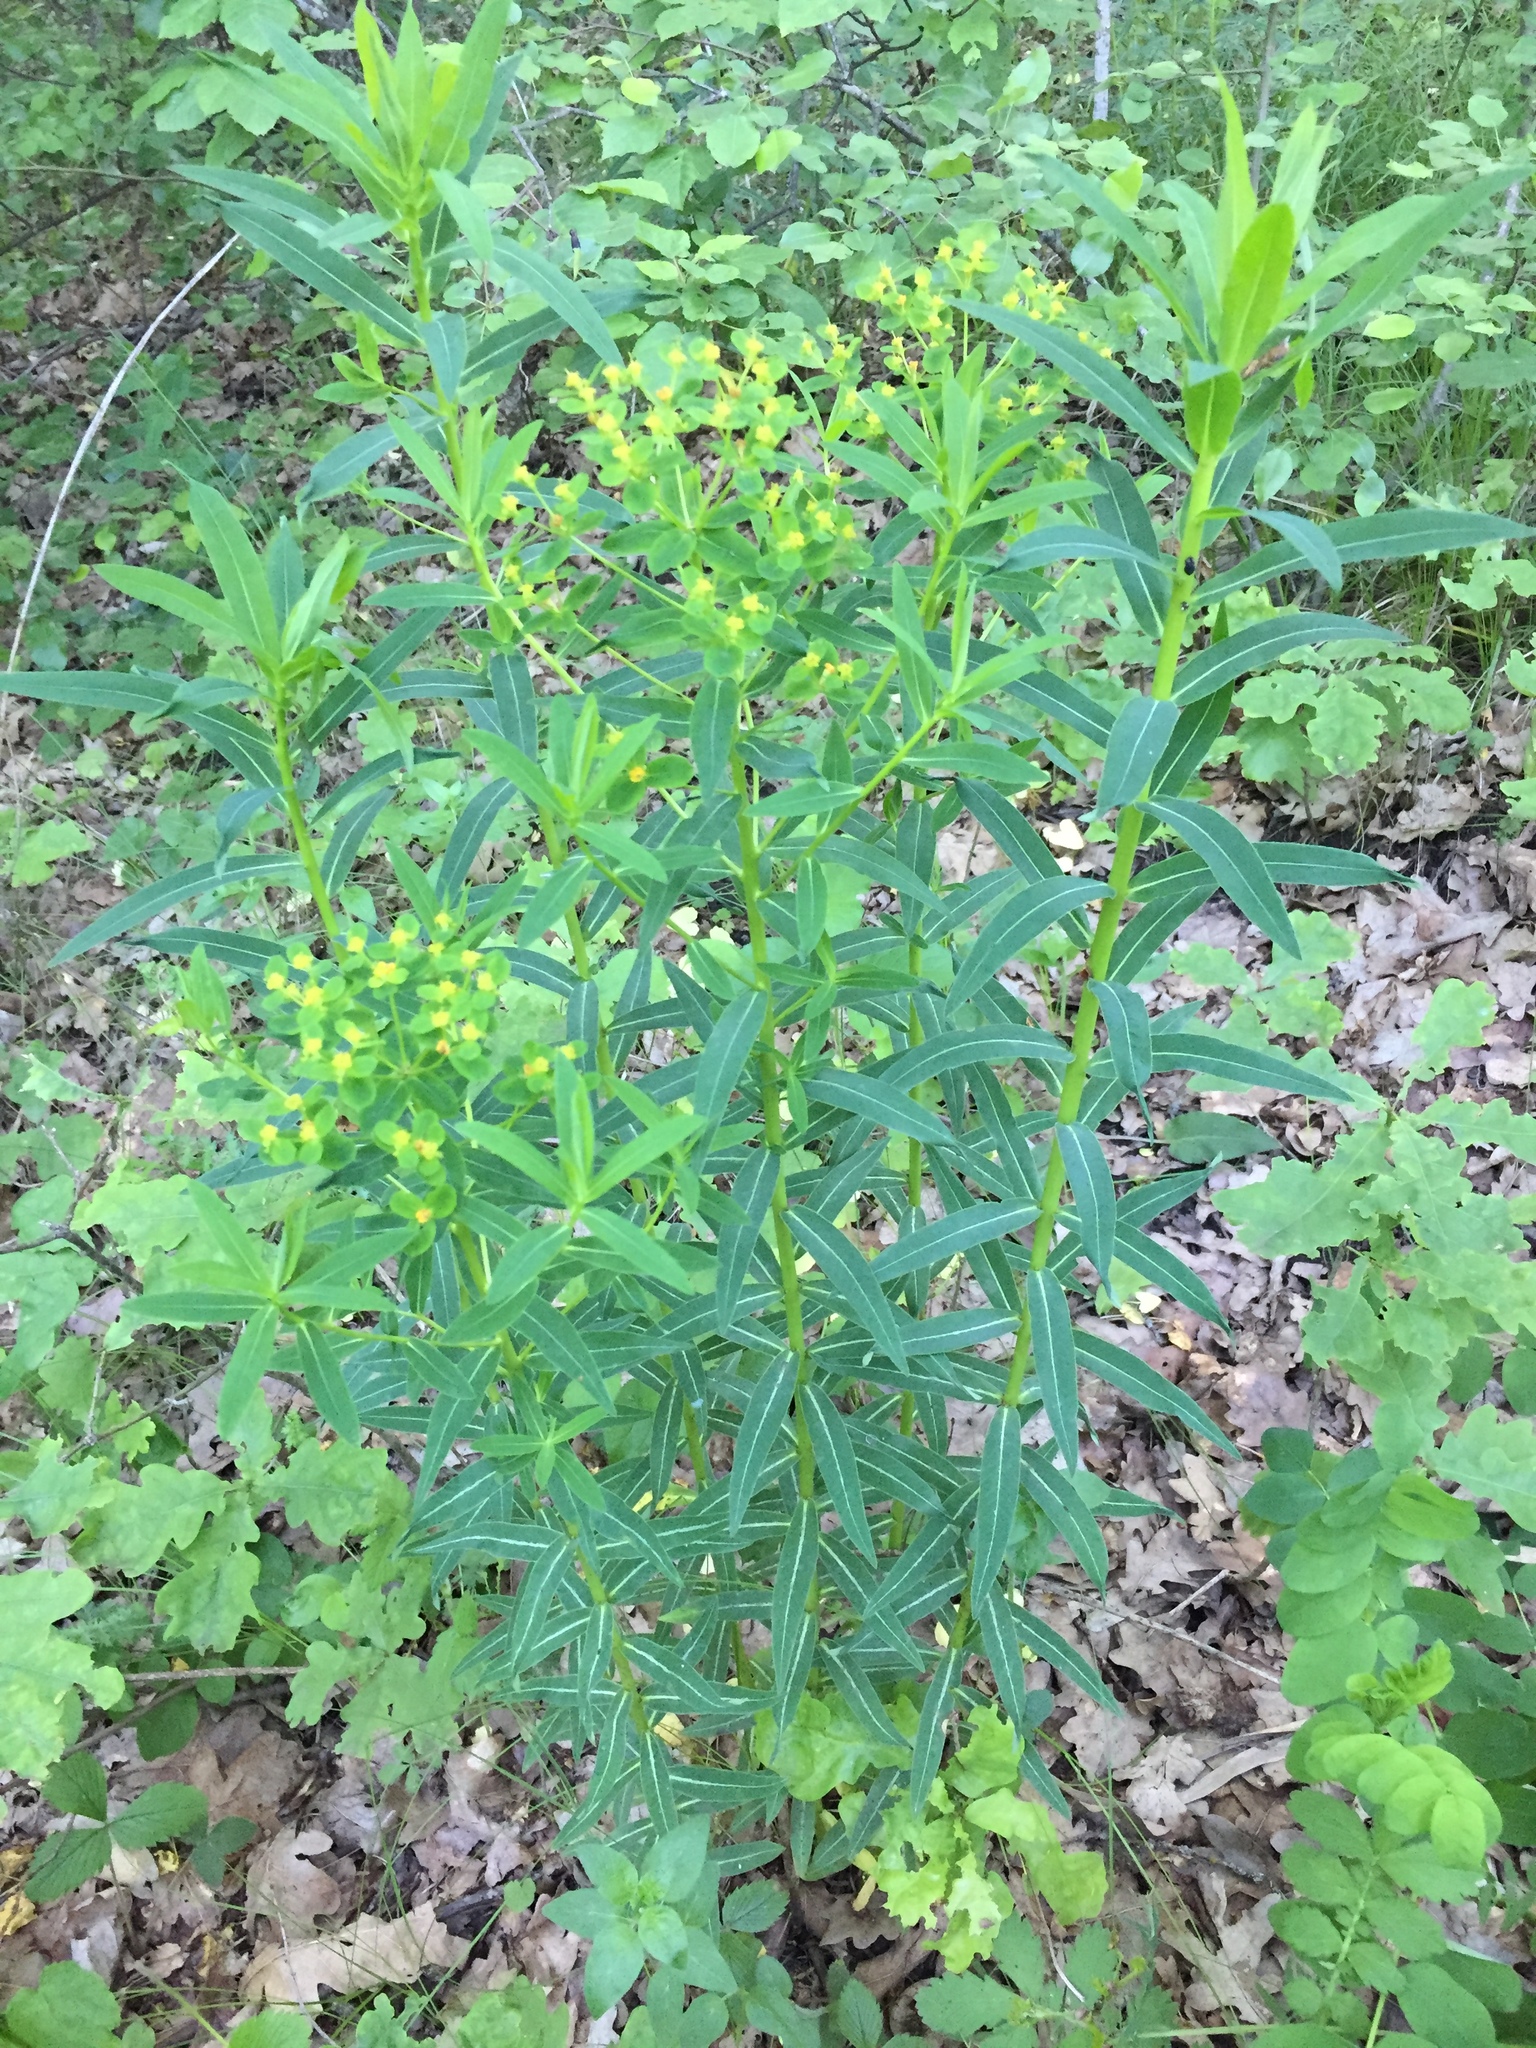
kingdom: Plantae
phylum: Tracheophyta
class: Magnoliopsida
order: Malpighiales
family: Euphorbiaceae
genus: Euphorbia
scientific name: Euphorbia virgata
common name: Leafy spurge
